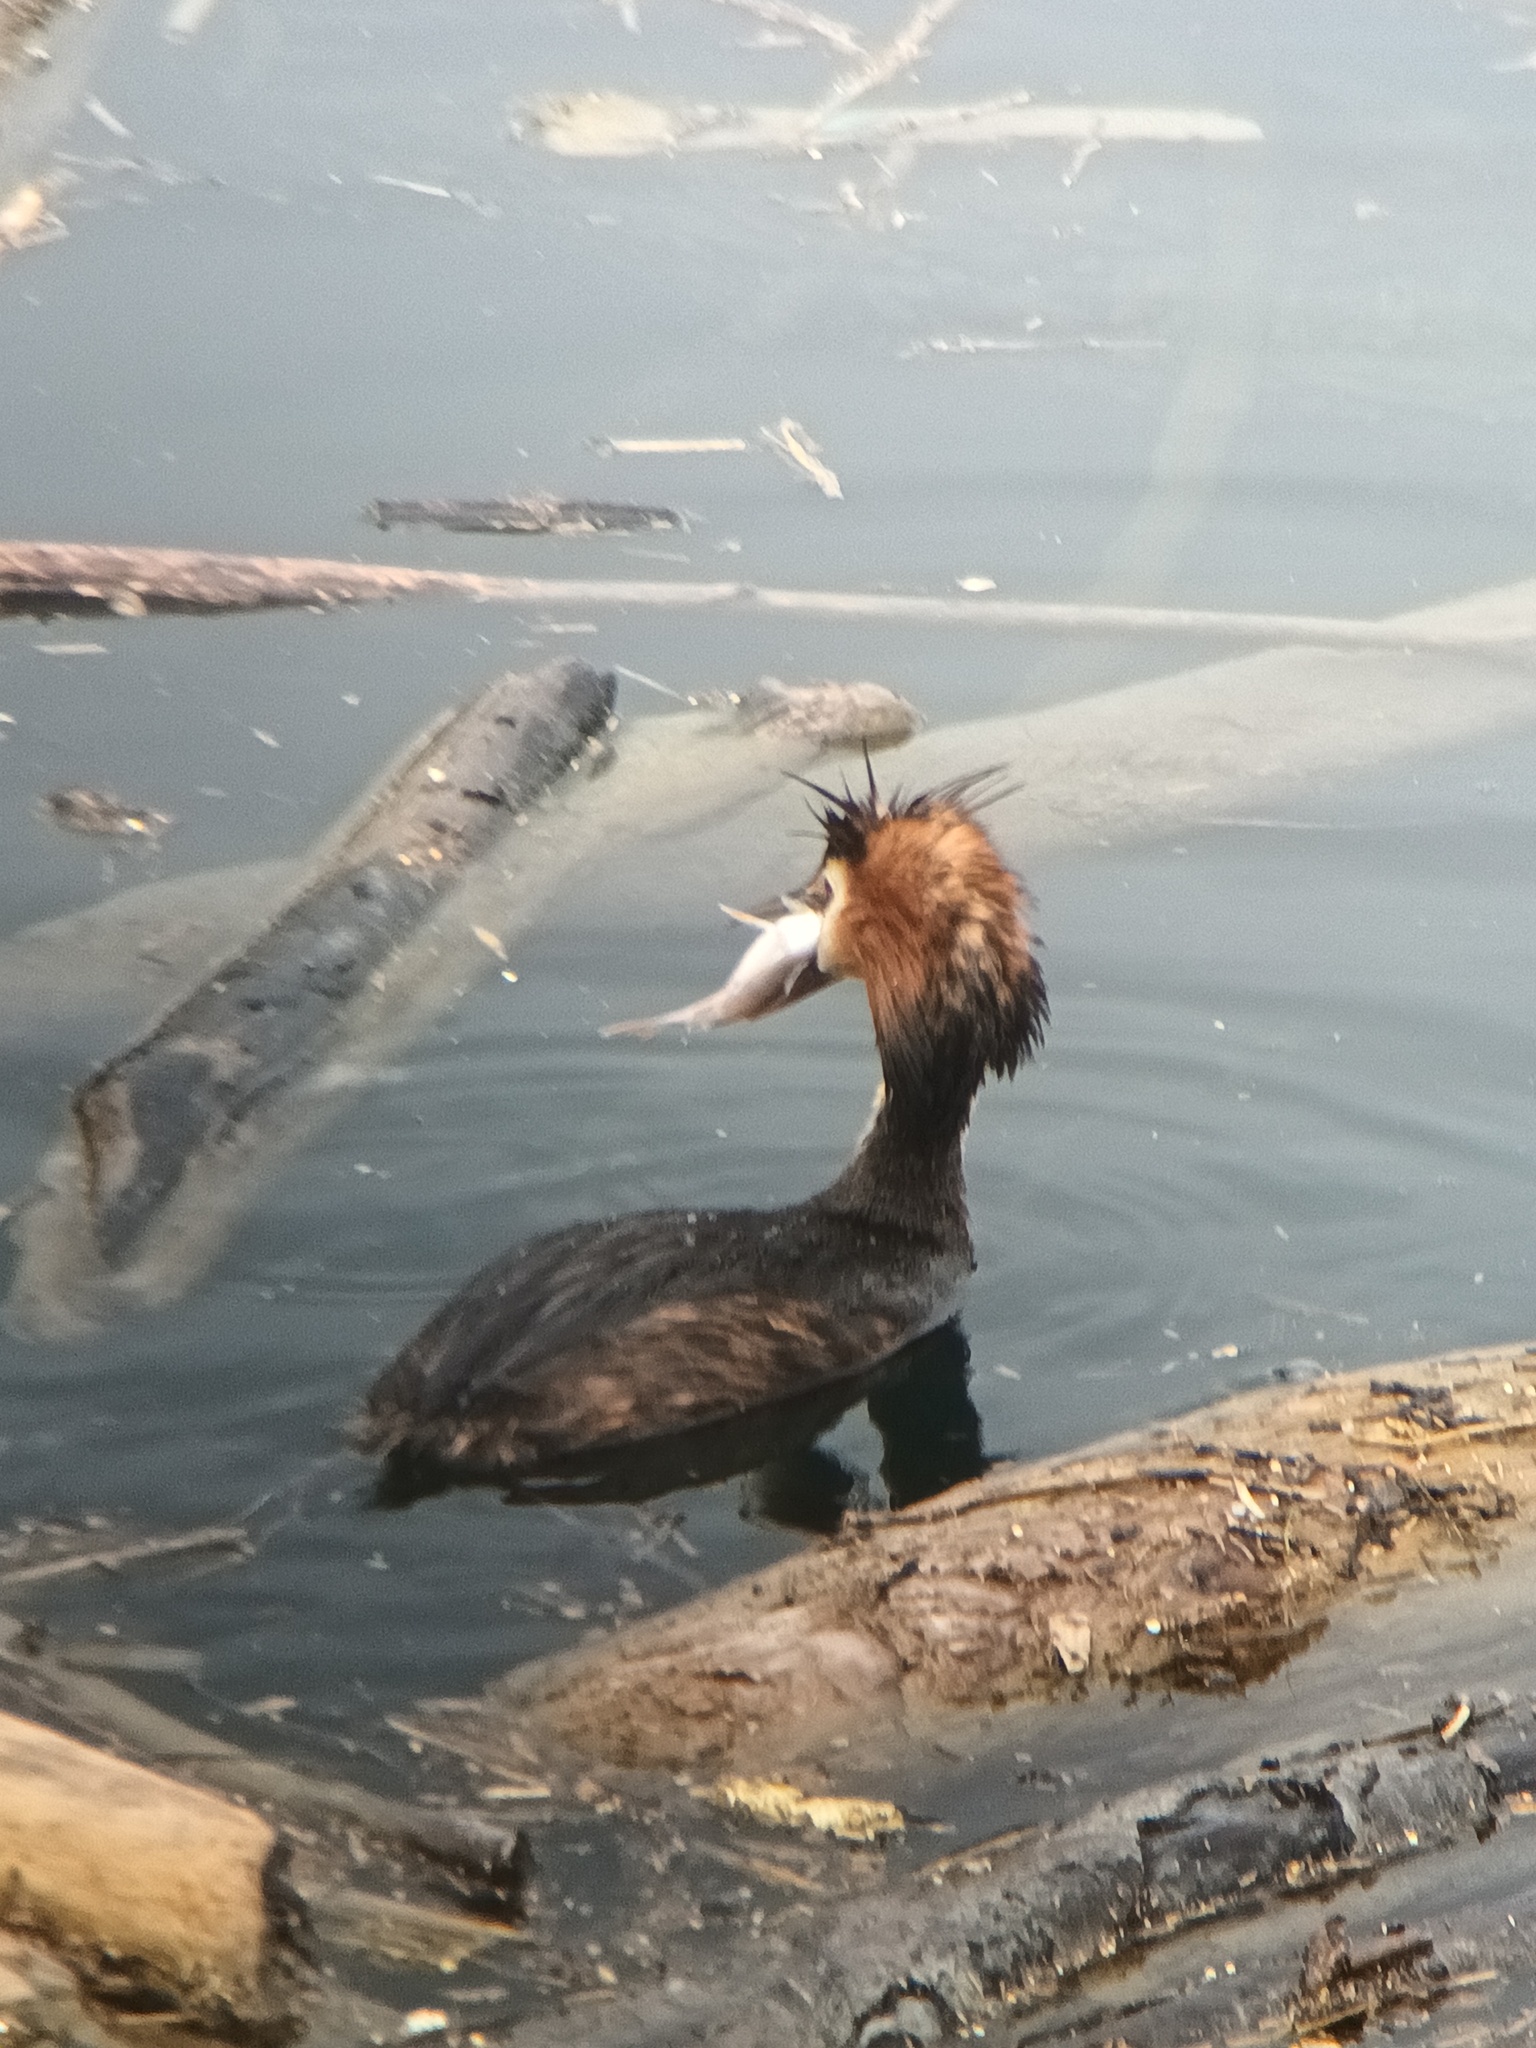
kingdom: Animalia
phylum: Chordata
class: Aves
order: Podicipediformes
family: Podicipedidae
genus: Podiceps
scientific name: Podiceps cristatus
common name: Great crested grebe
